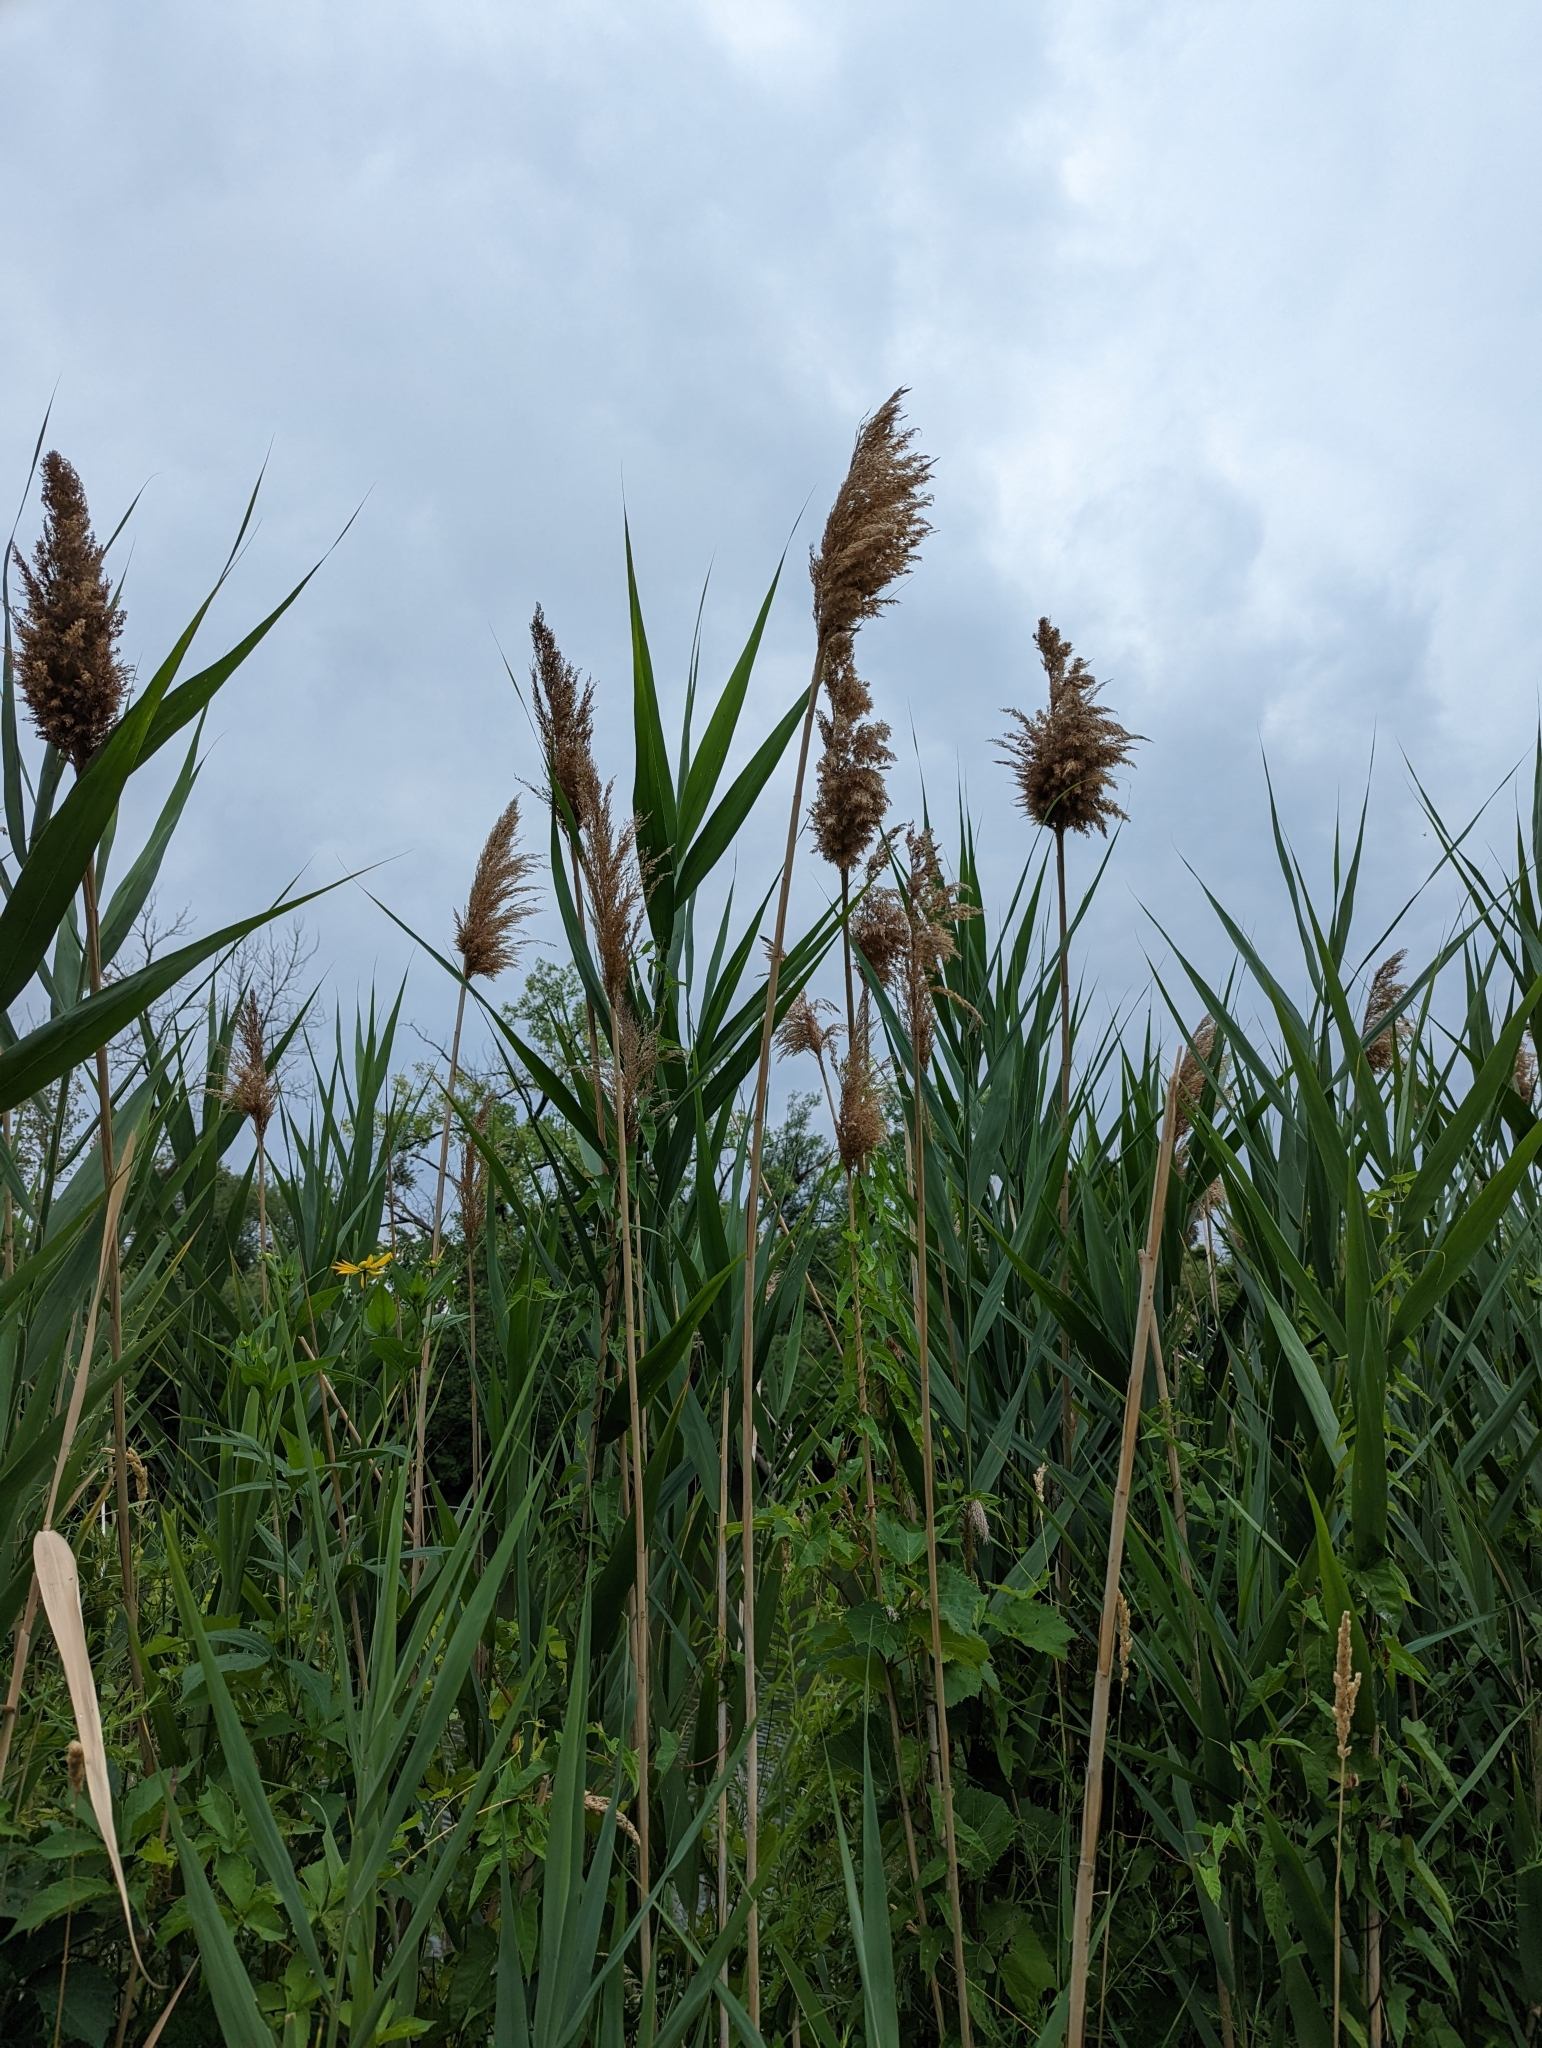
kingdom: Plantae
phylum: Tracheophyta
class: Liliopsida
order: Poales
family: Poaceae
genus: Phragmites
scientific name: Phragmites australis
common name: Common reed
